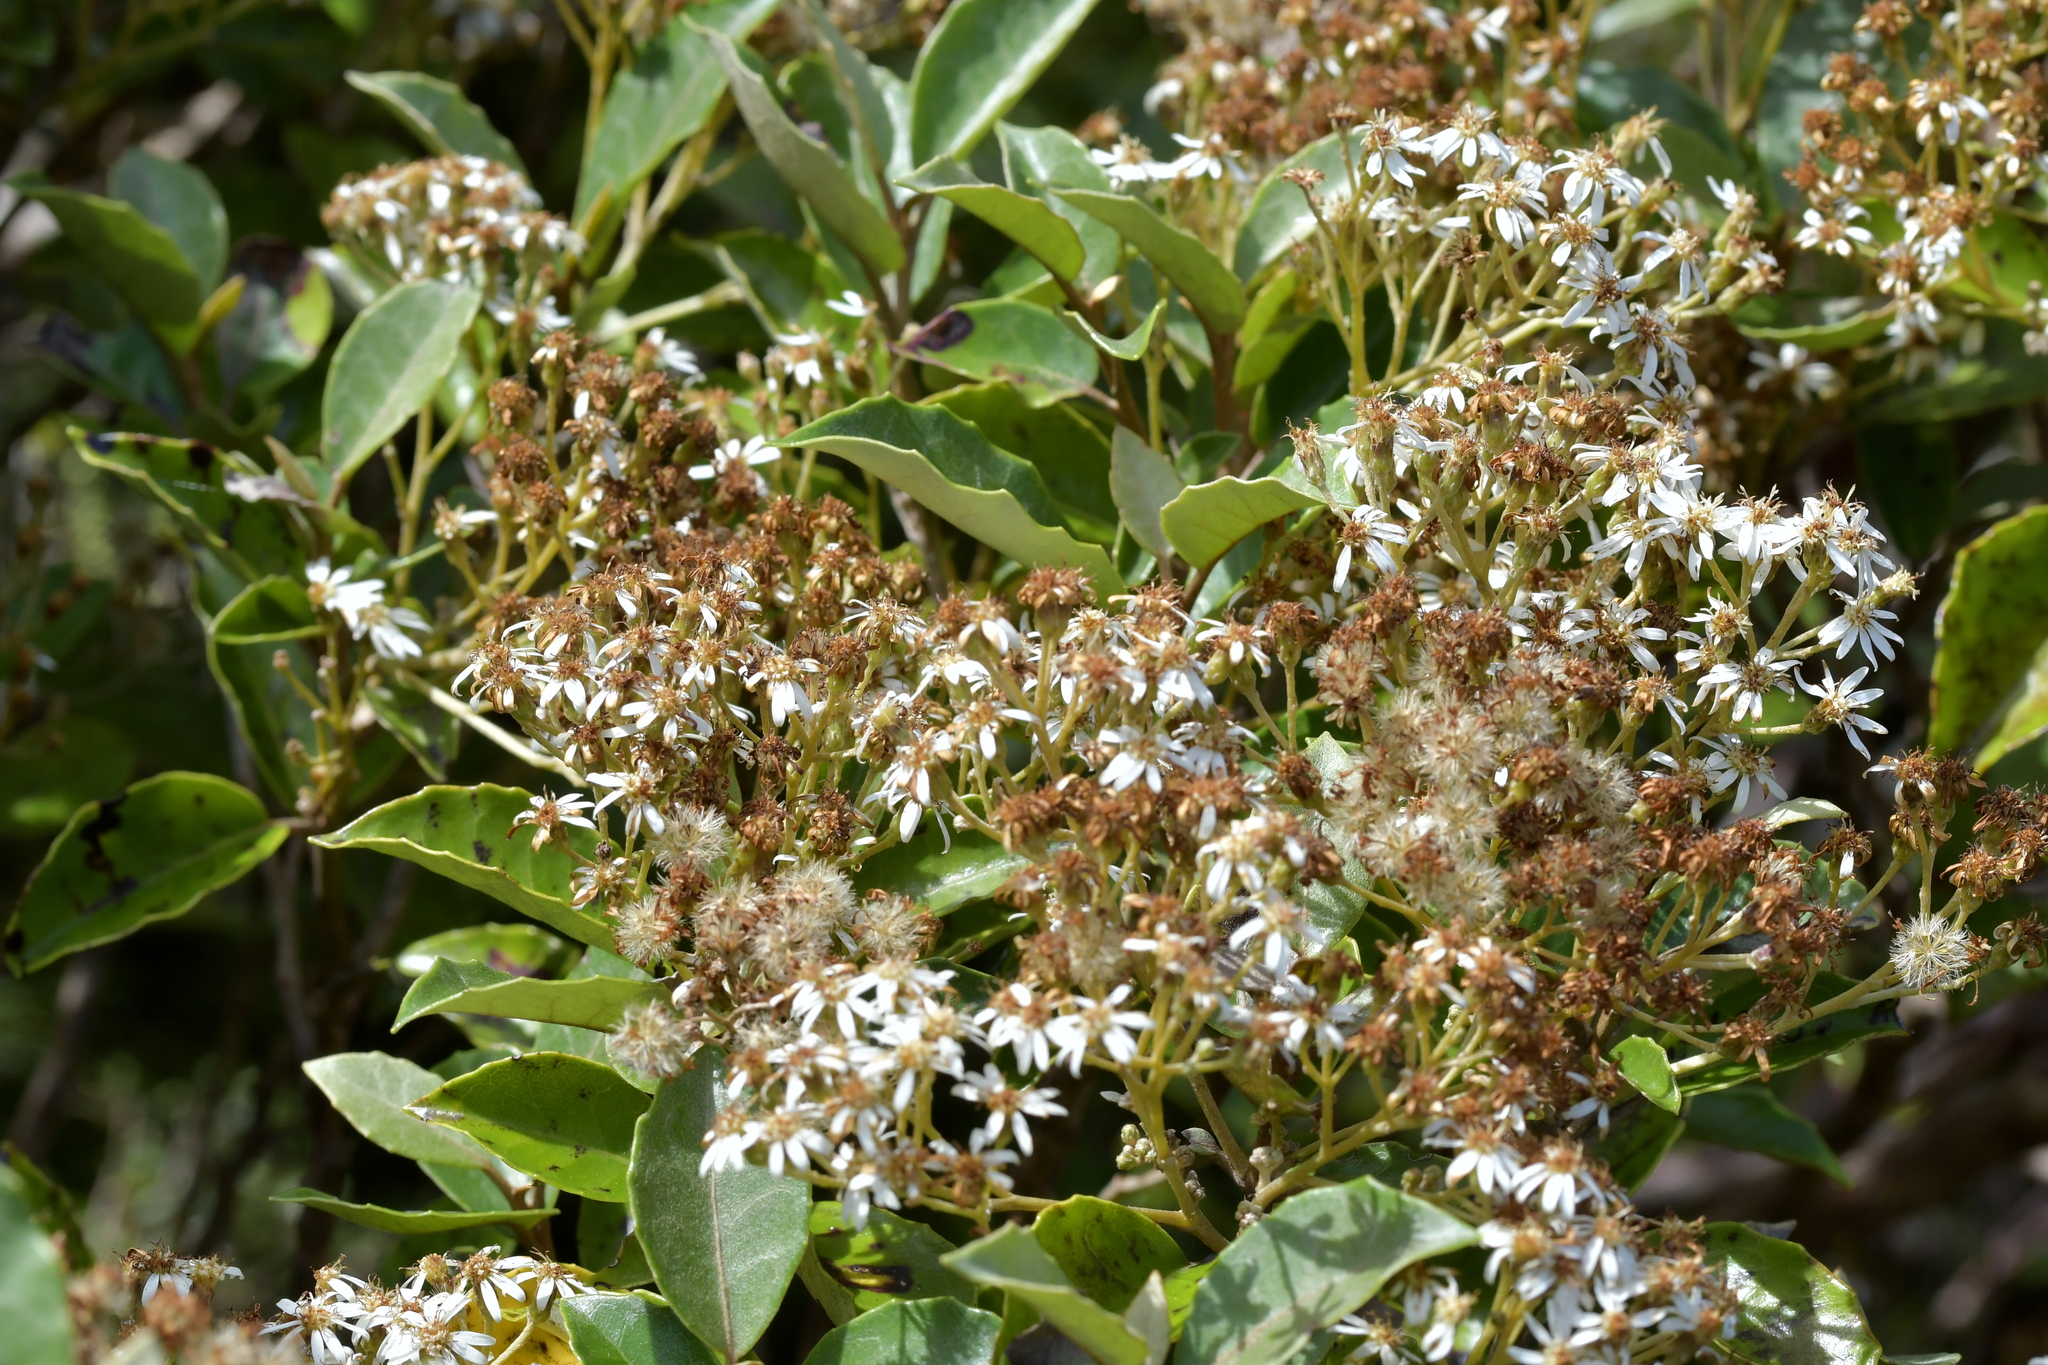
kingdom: Plantae
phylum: Tracheophyta
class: Magnoliopsida
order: Asterales
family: Asteraceae
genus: Olearia
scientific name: Olearia arborescens
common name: Glossy tree daisy
